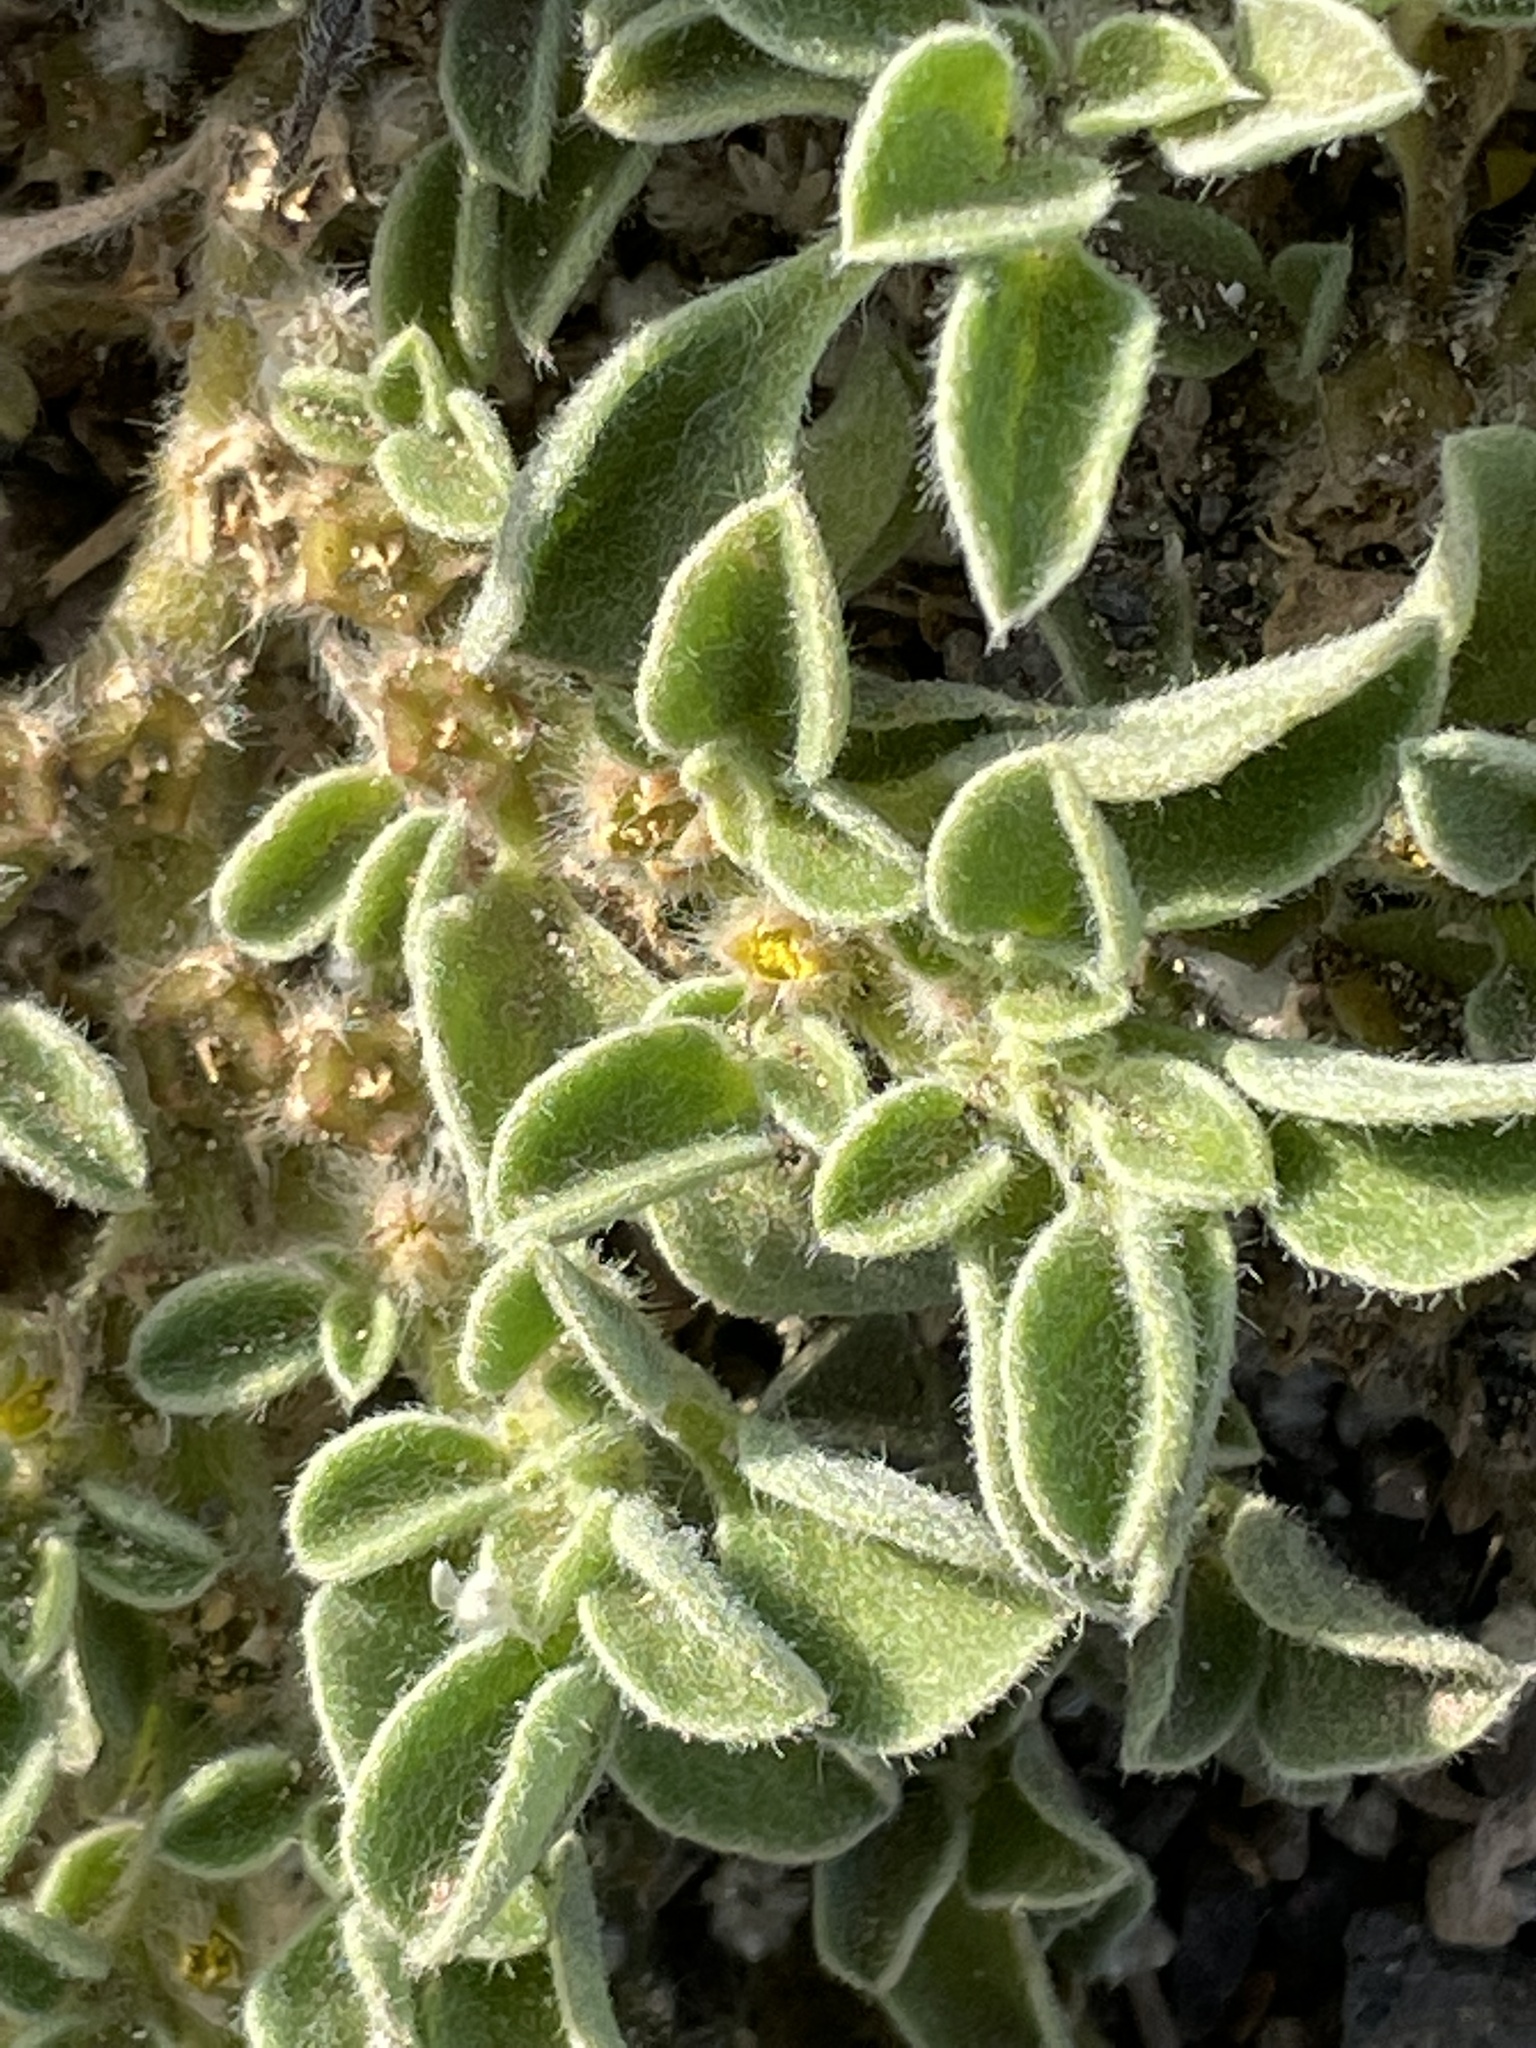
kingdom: Plantae
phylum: Tracheophyta
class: Magnoliopsida
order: Caryophyllales
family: Aizoaceae
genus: Aizoon
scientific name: Aizoon canariense
